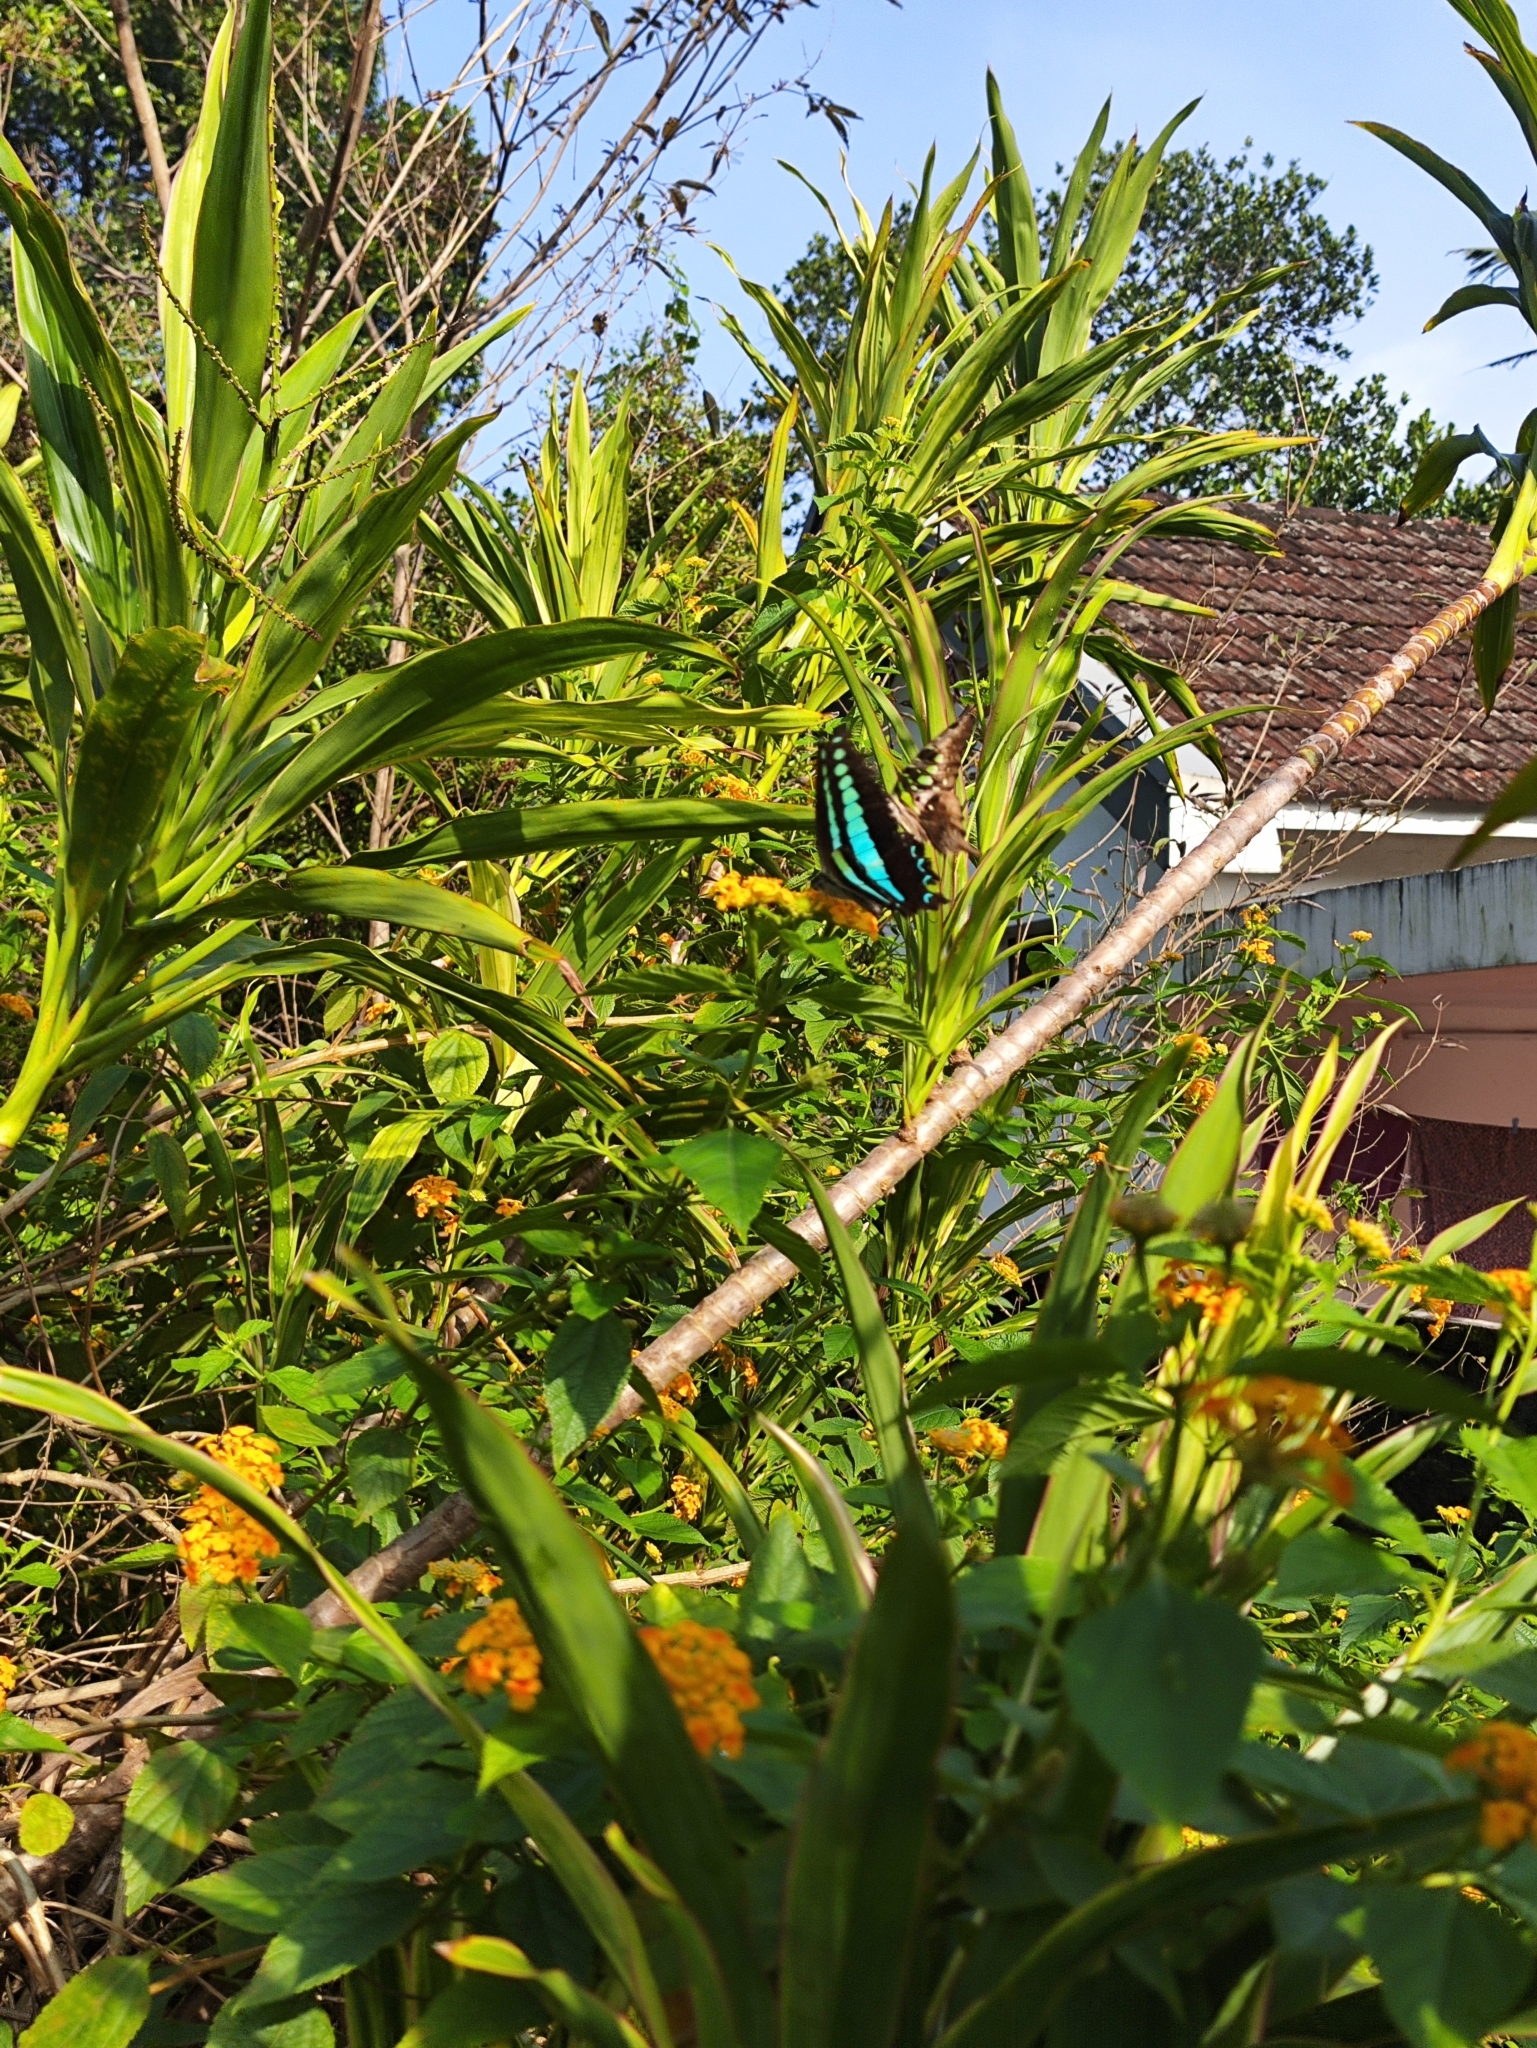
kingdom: Animalia
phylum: Arthropoda
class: Insecta
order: Lepidoptera
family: Papilionidae
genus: Graphium
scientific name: Graphium
